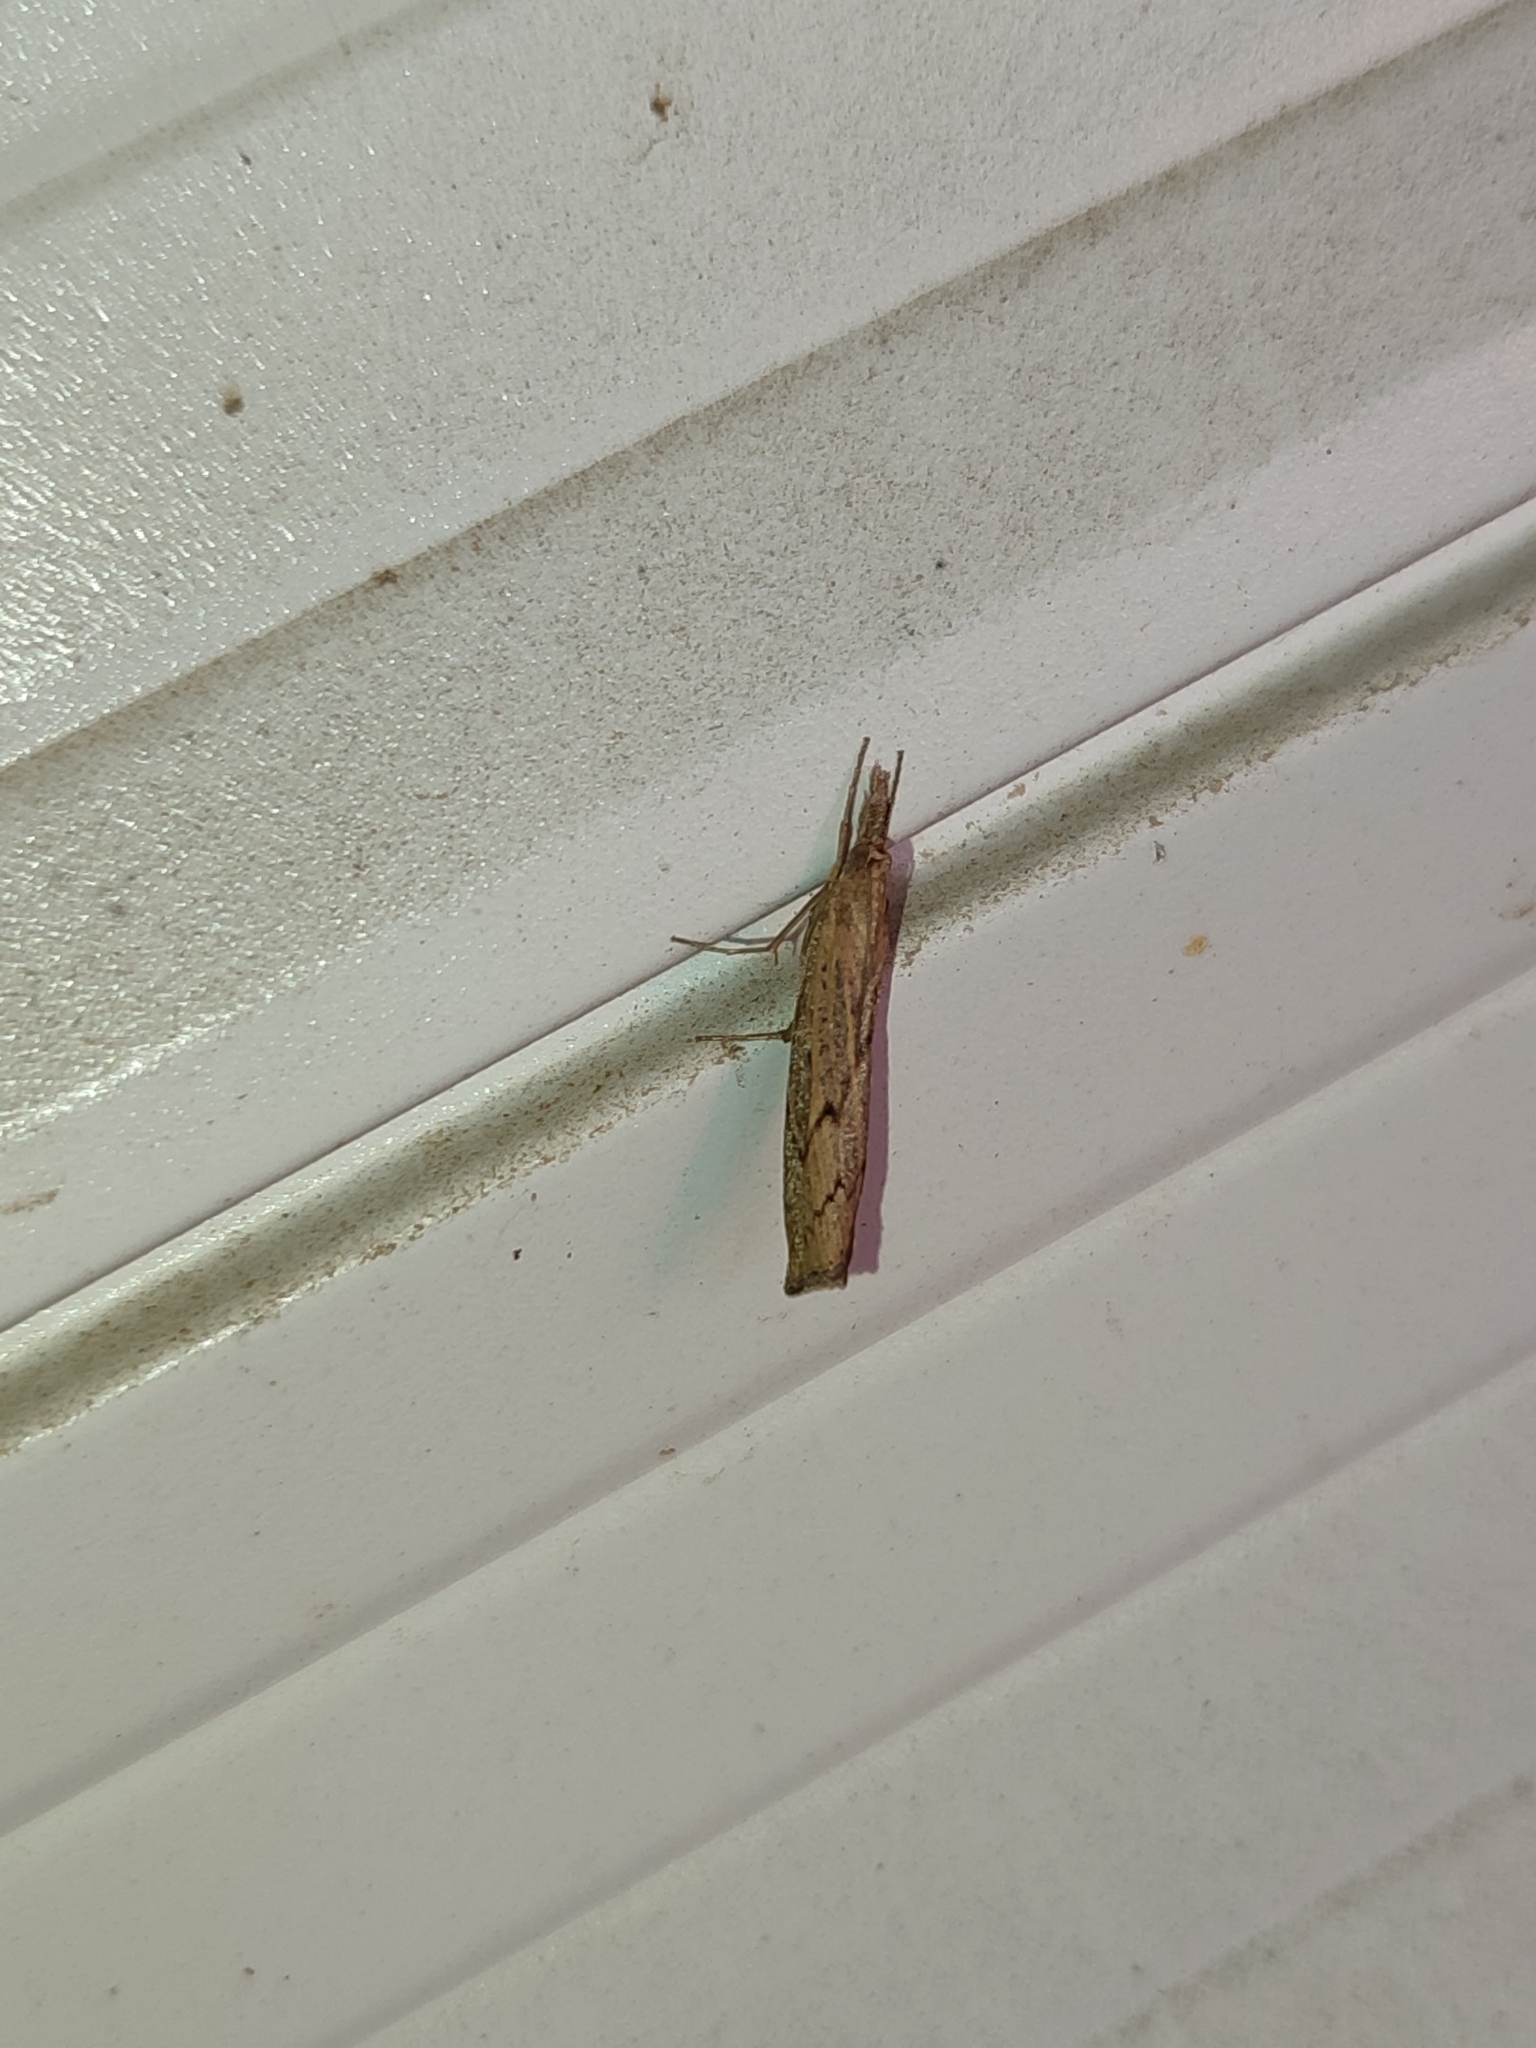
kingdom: Animalia
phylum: Arthropoda
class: Insecta
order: Lepidoptera
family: Crambidae
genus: Pediasia
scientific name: Pediasia contaminella
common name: Waste grass-veneer
